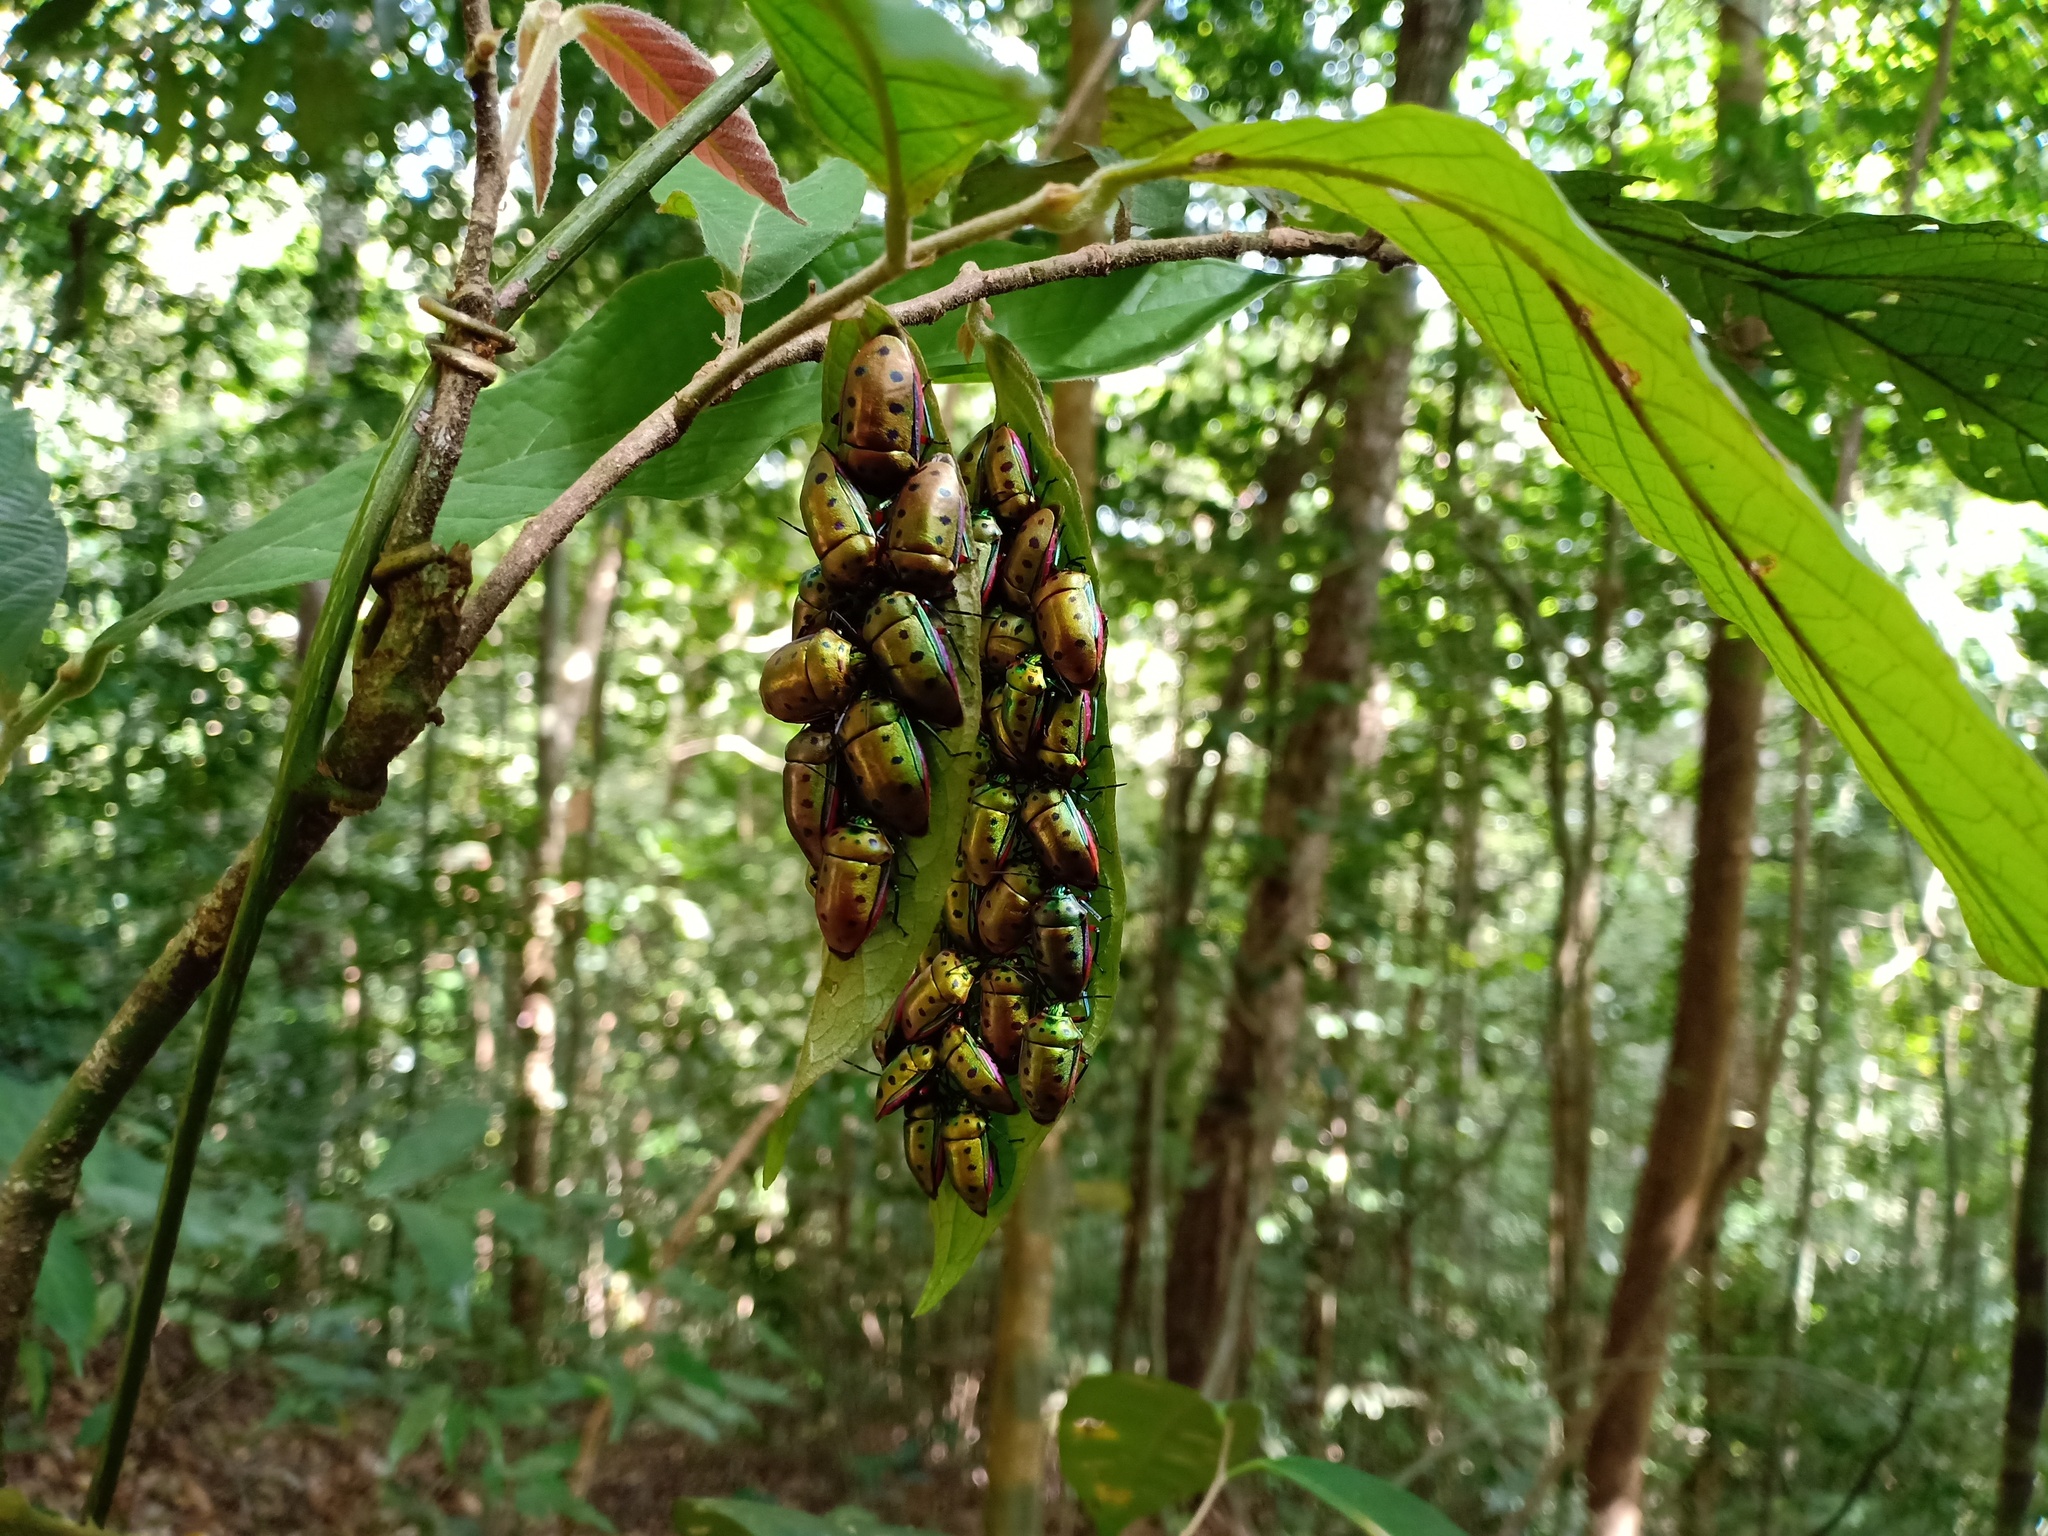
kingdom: Animalia
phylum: Arthropoda
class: Insecta
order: Hemiptera
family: Scutelleridae
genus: Calliphara
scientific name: Calliphara nobilis
